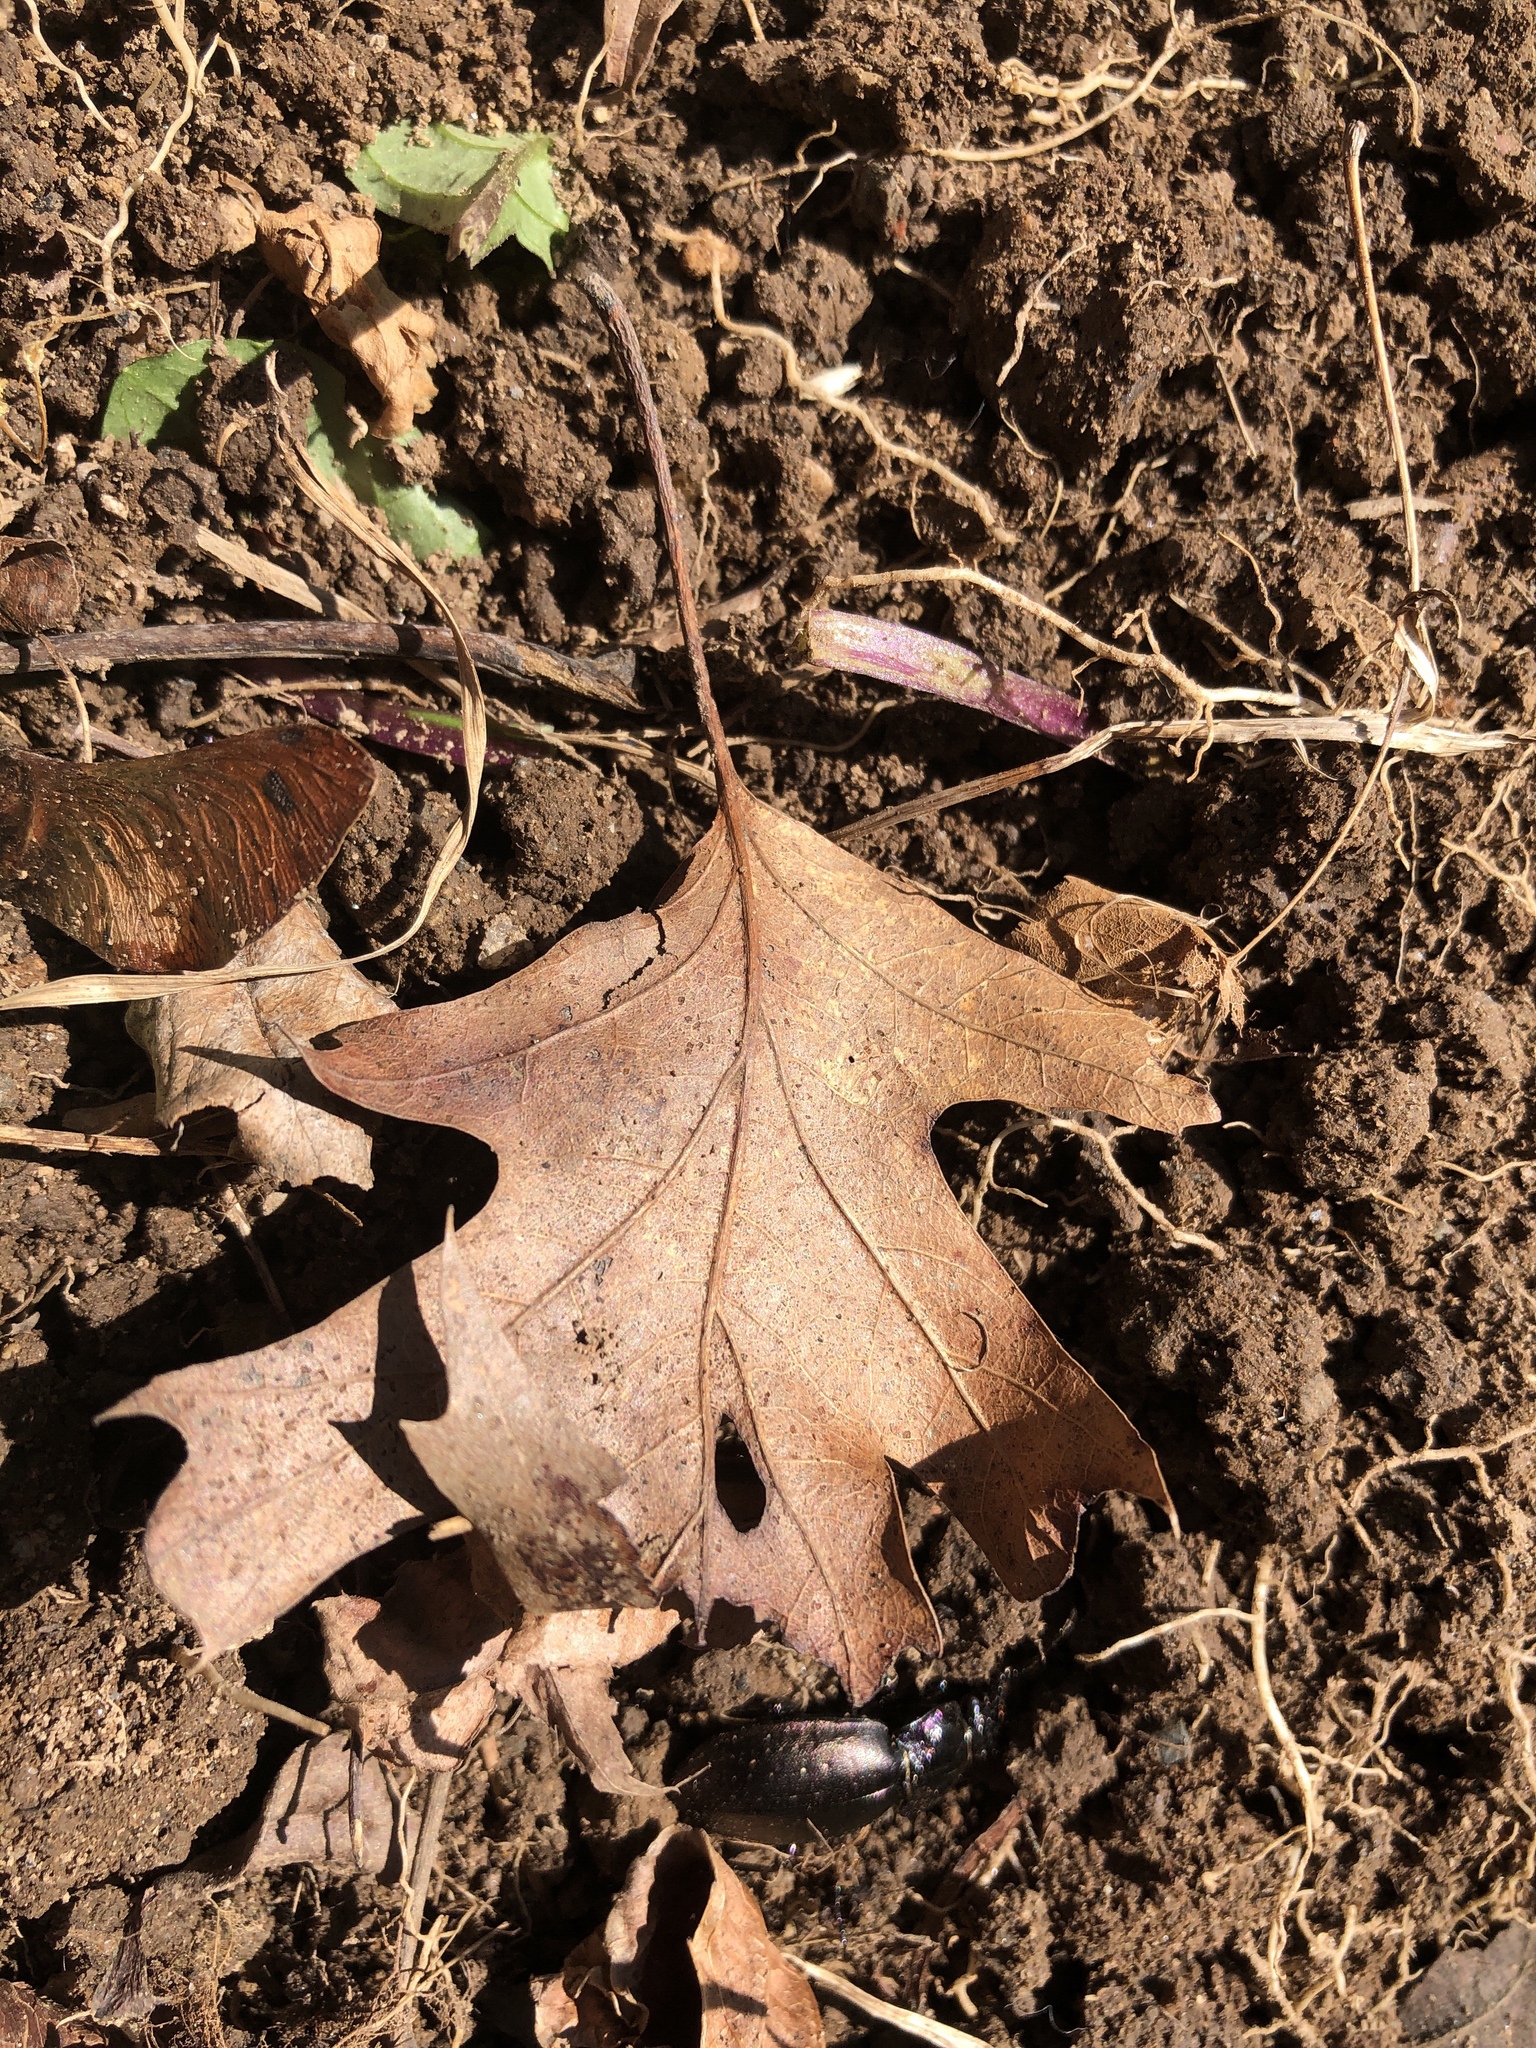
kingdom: Animalia
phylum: Arthropoda
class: Insecta
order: Coleoptera
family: Carabidae
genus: Carabus
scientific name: Carabus nemoralis
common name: European ground beetle
